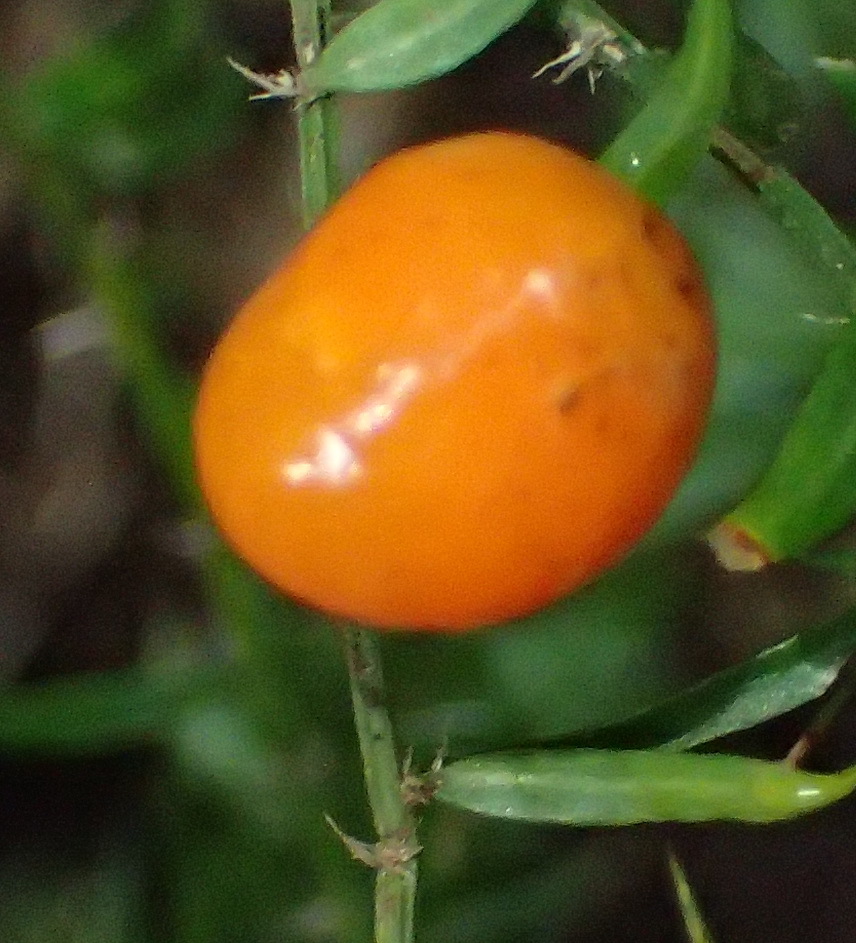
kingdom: Plantae
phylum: Tracheophyta
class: Liliopsida
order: Asparagales
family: Asparagaceae
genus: Asparagus
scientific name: Asparagus scandens
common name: Asparagus-fern
